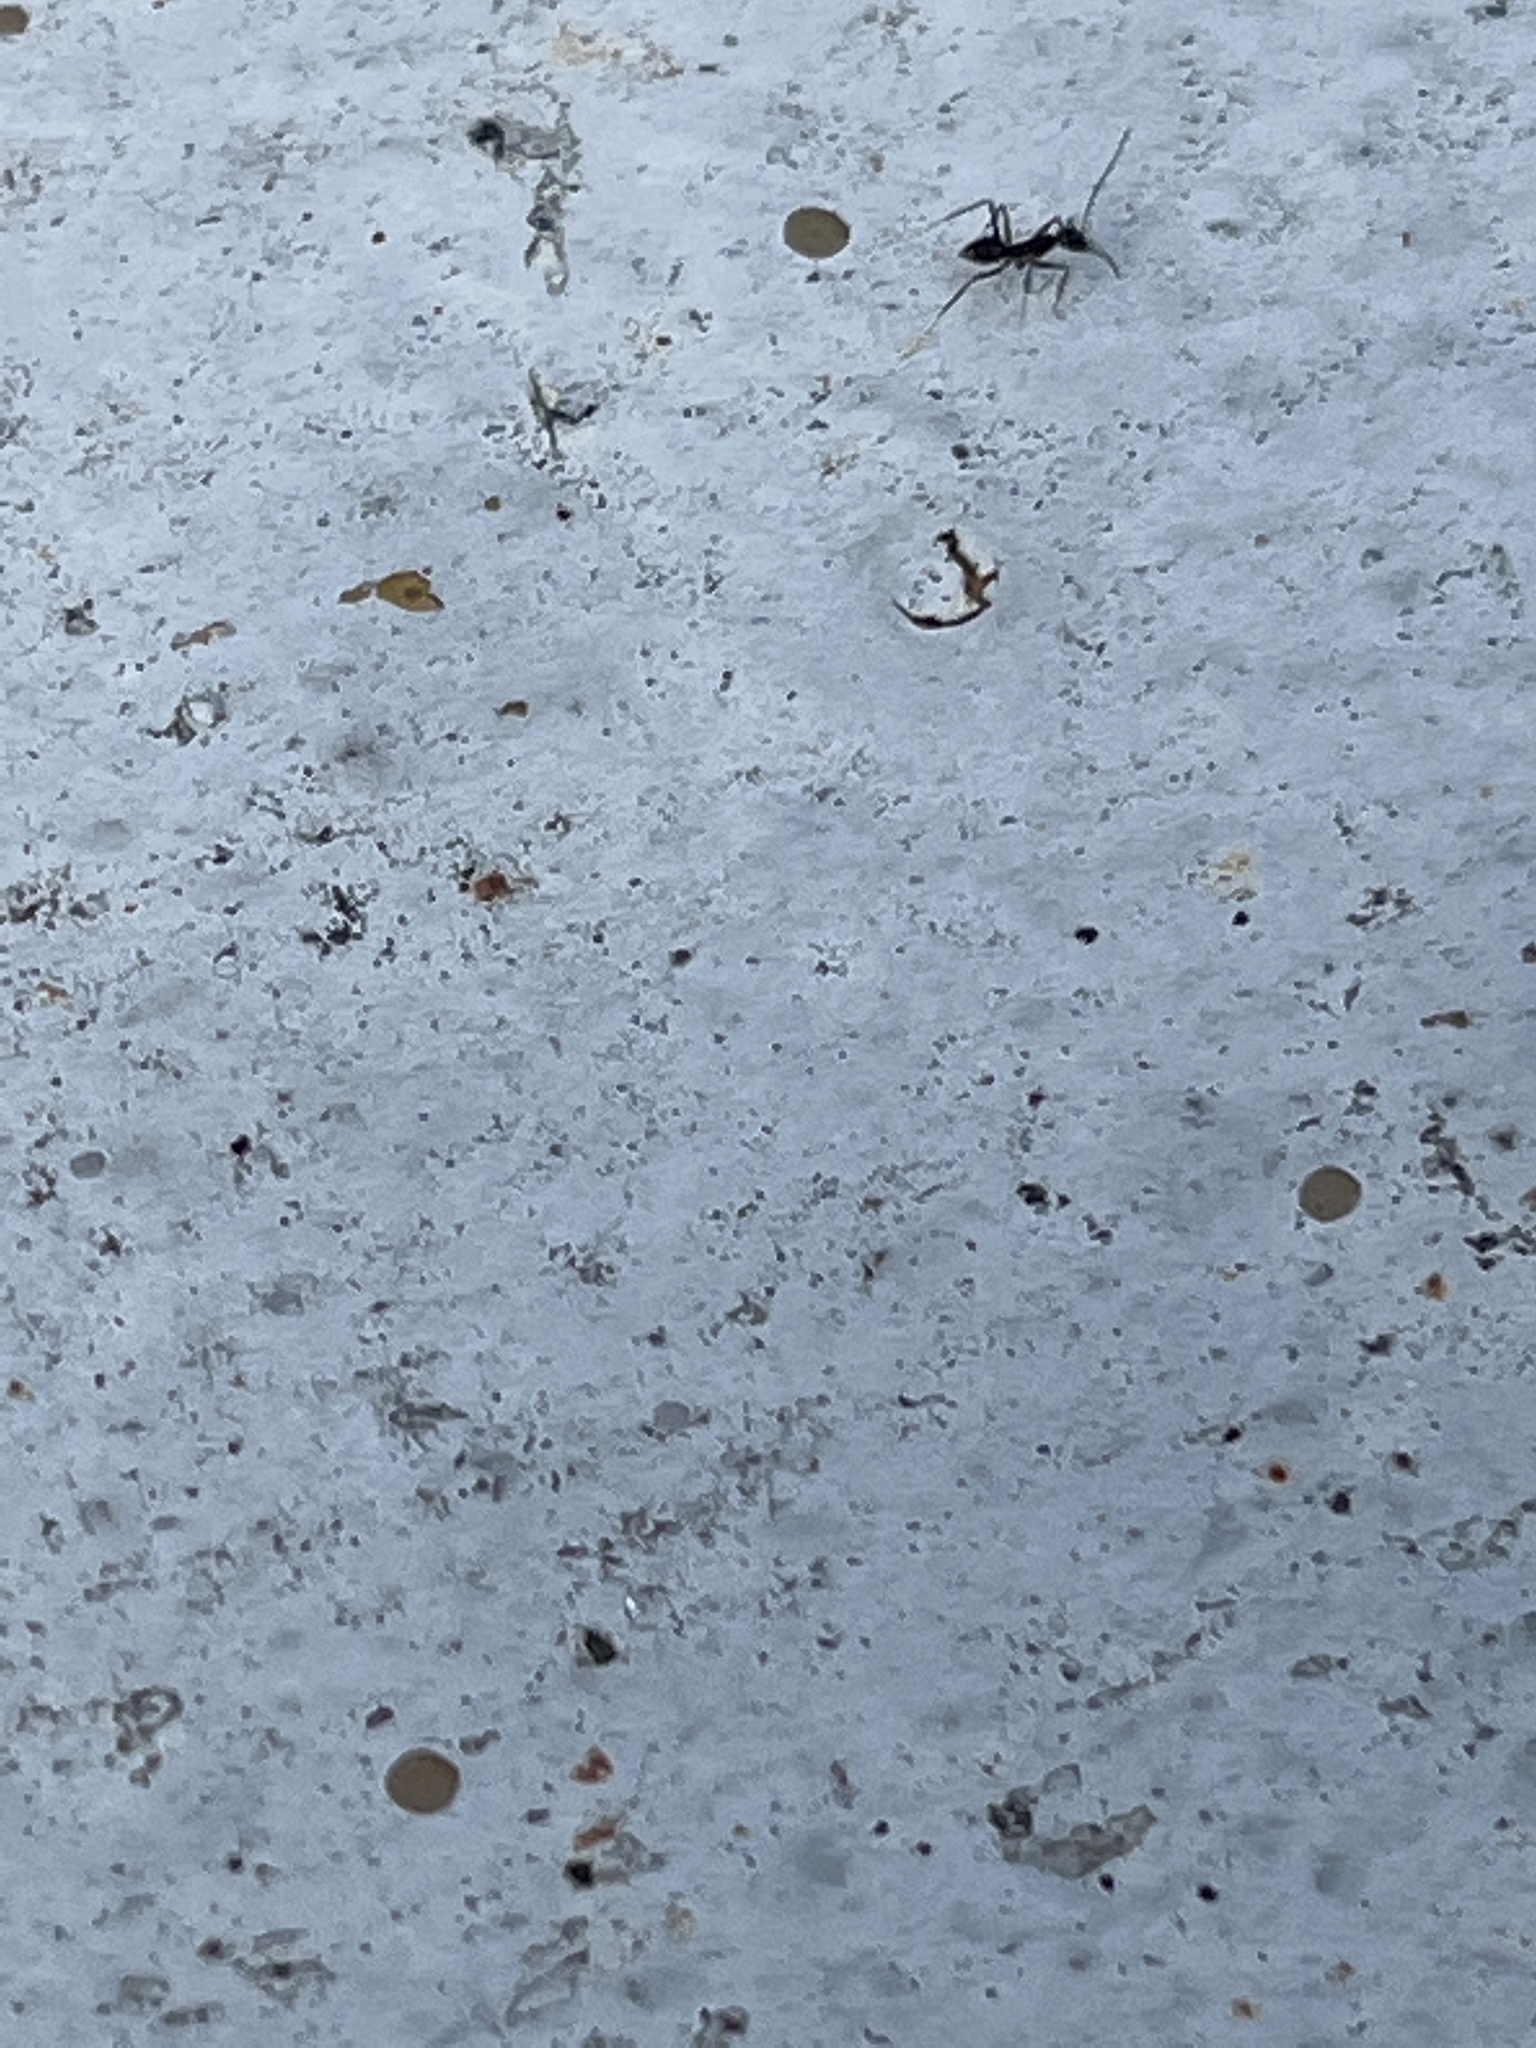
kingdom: Animalia
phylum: Arthropoda
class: Insecta
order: Hymenoptera
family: Formicidae
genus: Paratrechina
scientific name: Paratrechina longicornis
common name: Longhorned crazy ant
